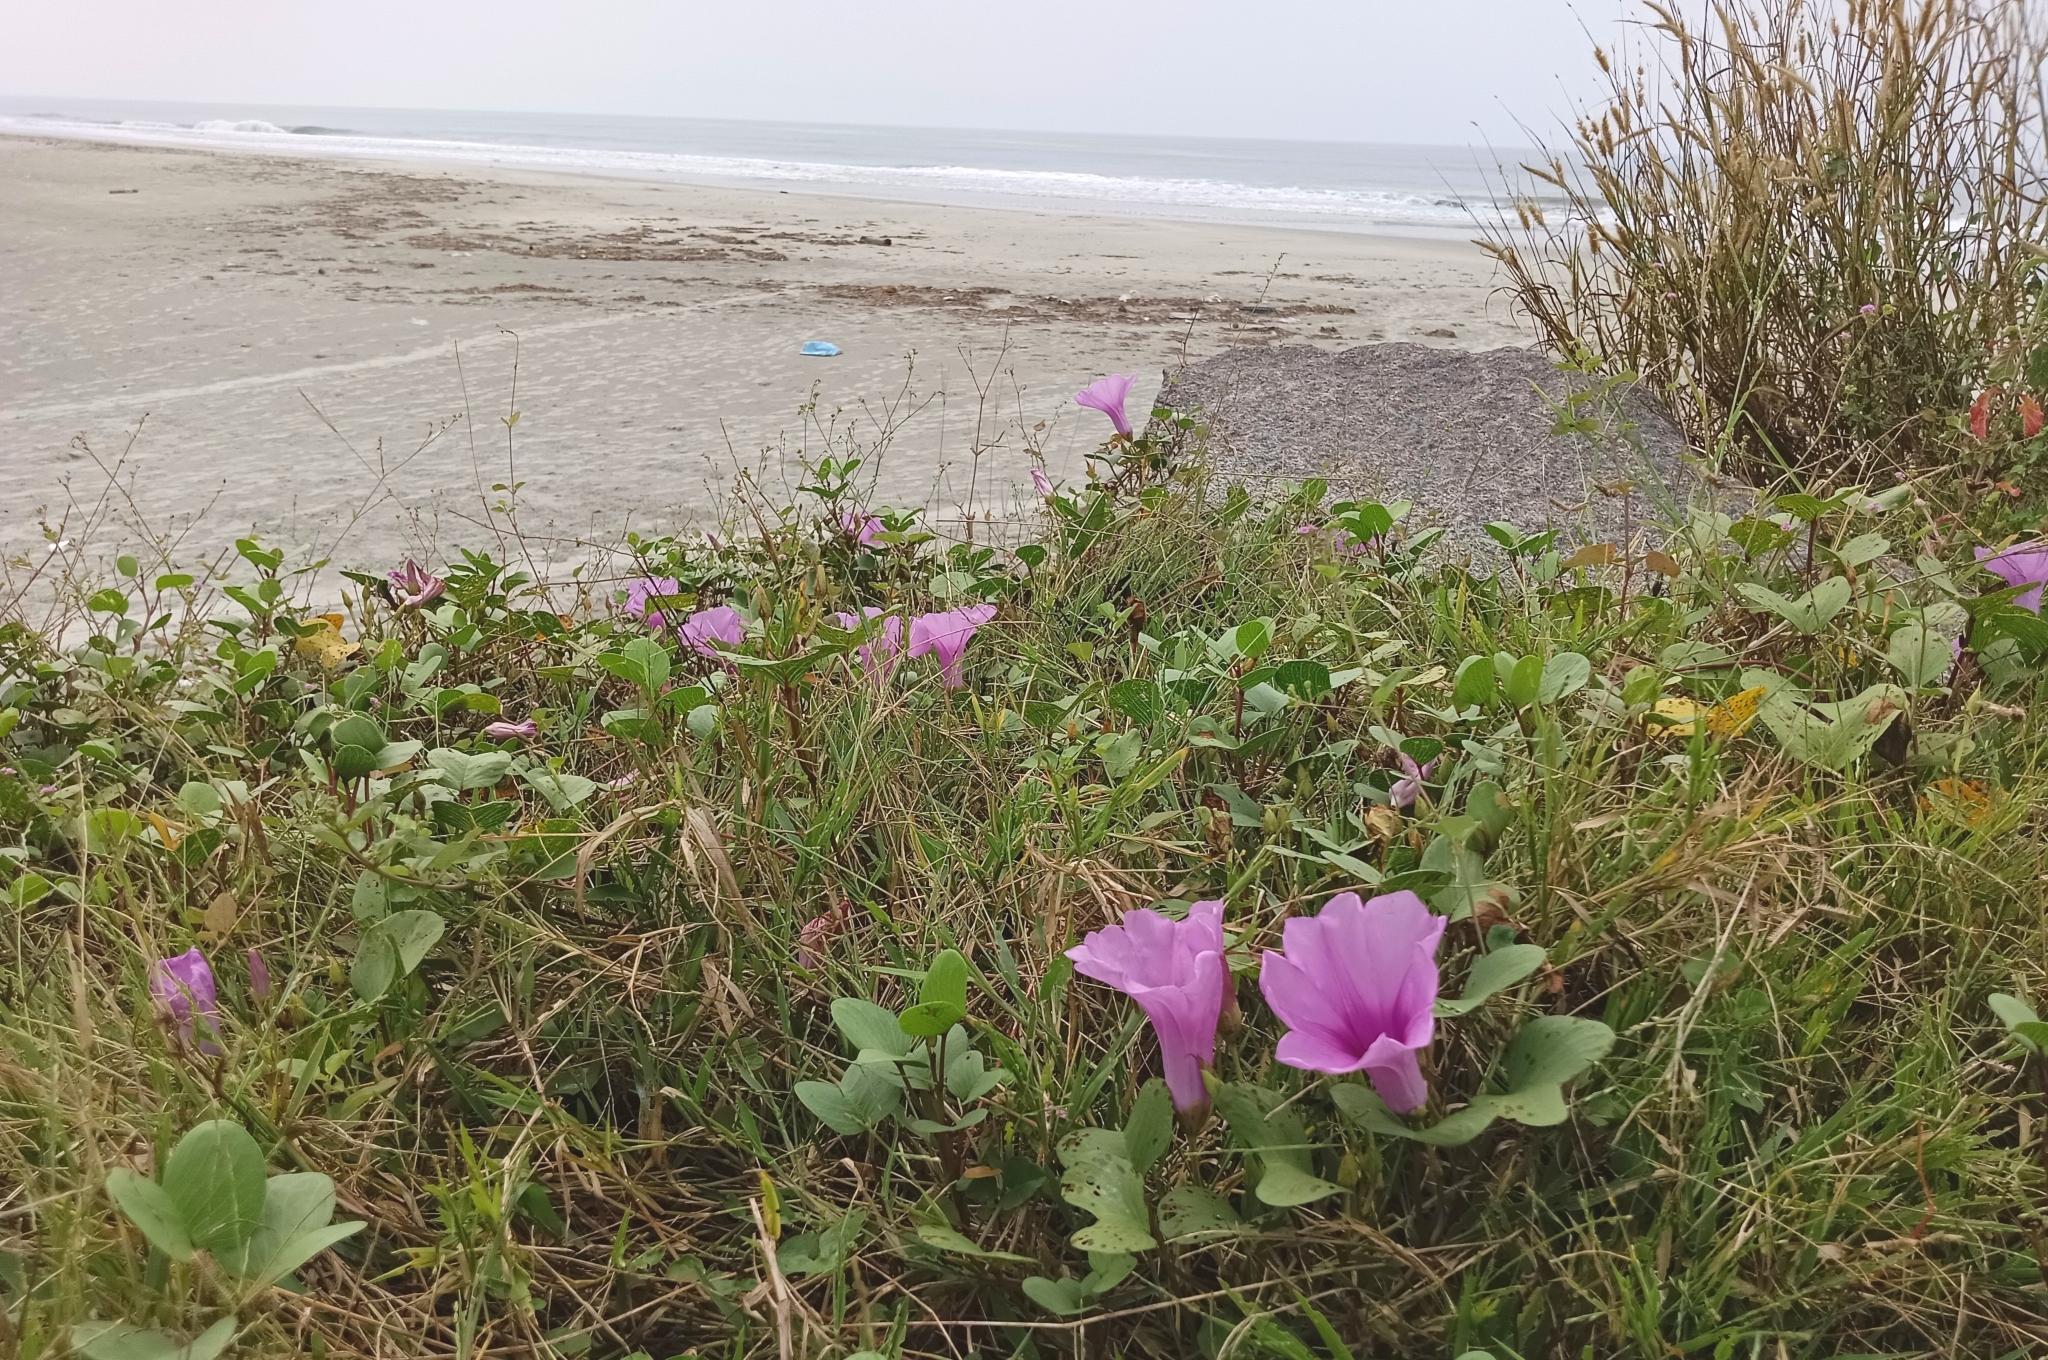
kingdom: Plantae
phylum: Tracheophyta
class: Magnoliopsida
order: Solanales
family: Convolvulaceae
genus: Ipomoea
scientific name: Ipomoea pes-caprae
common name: Beach morning glory
